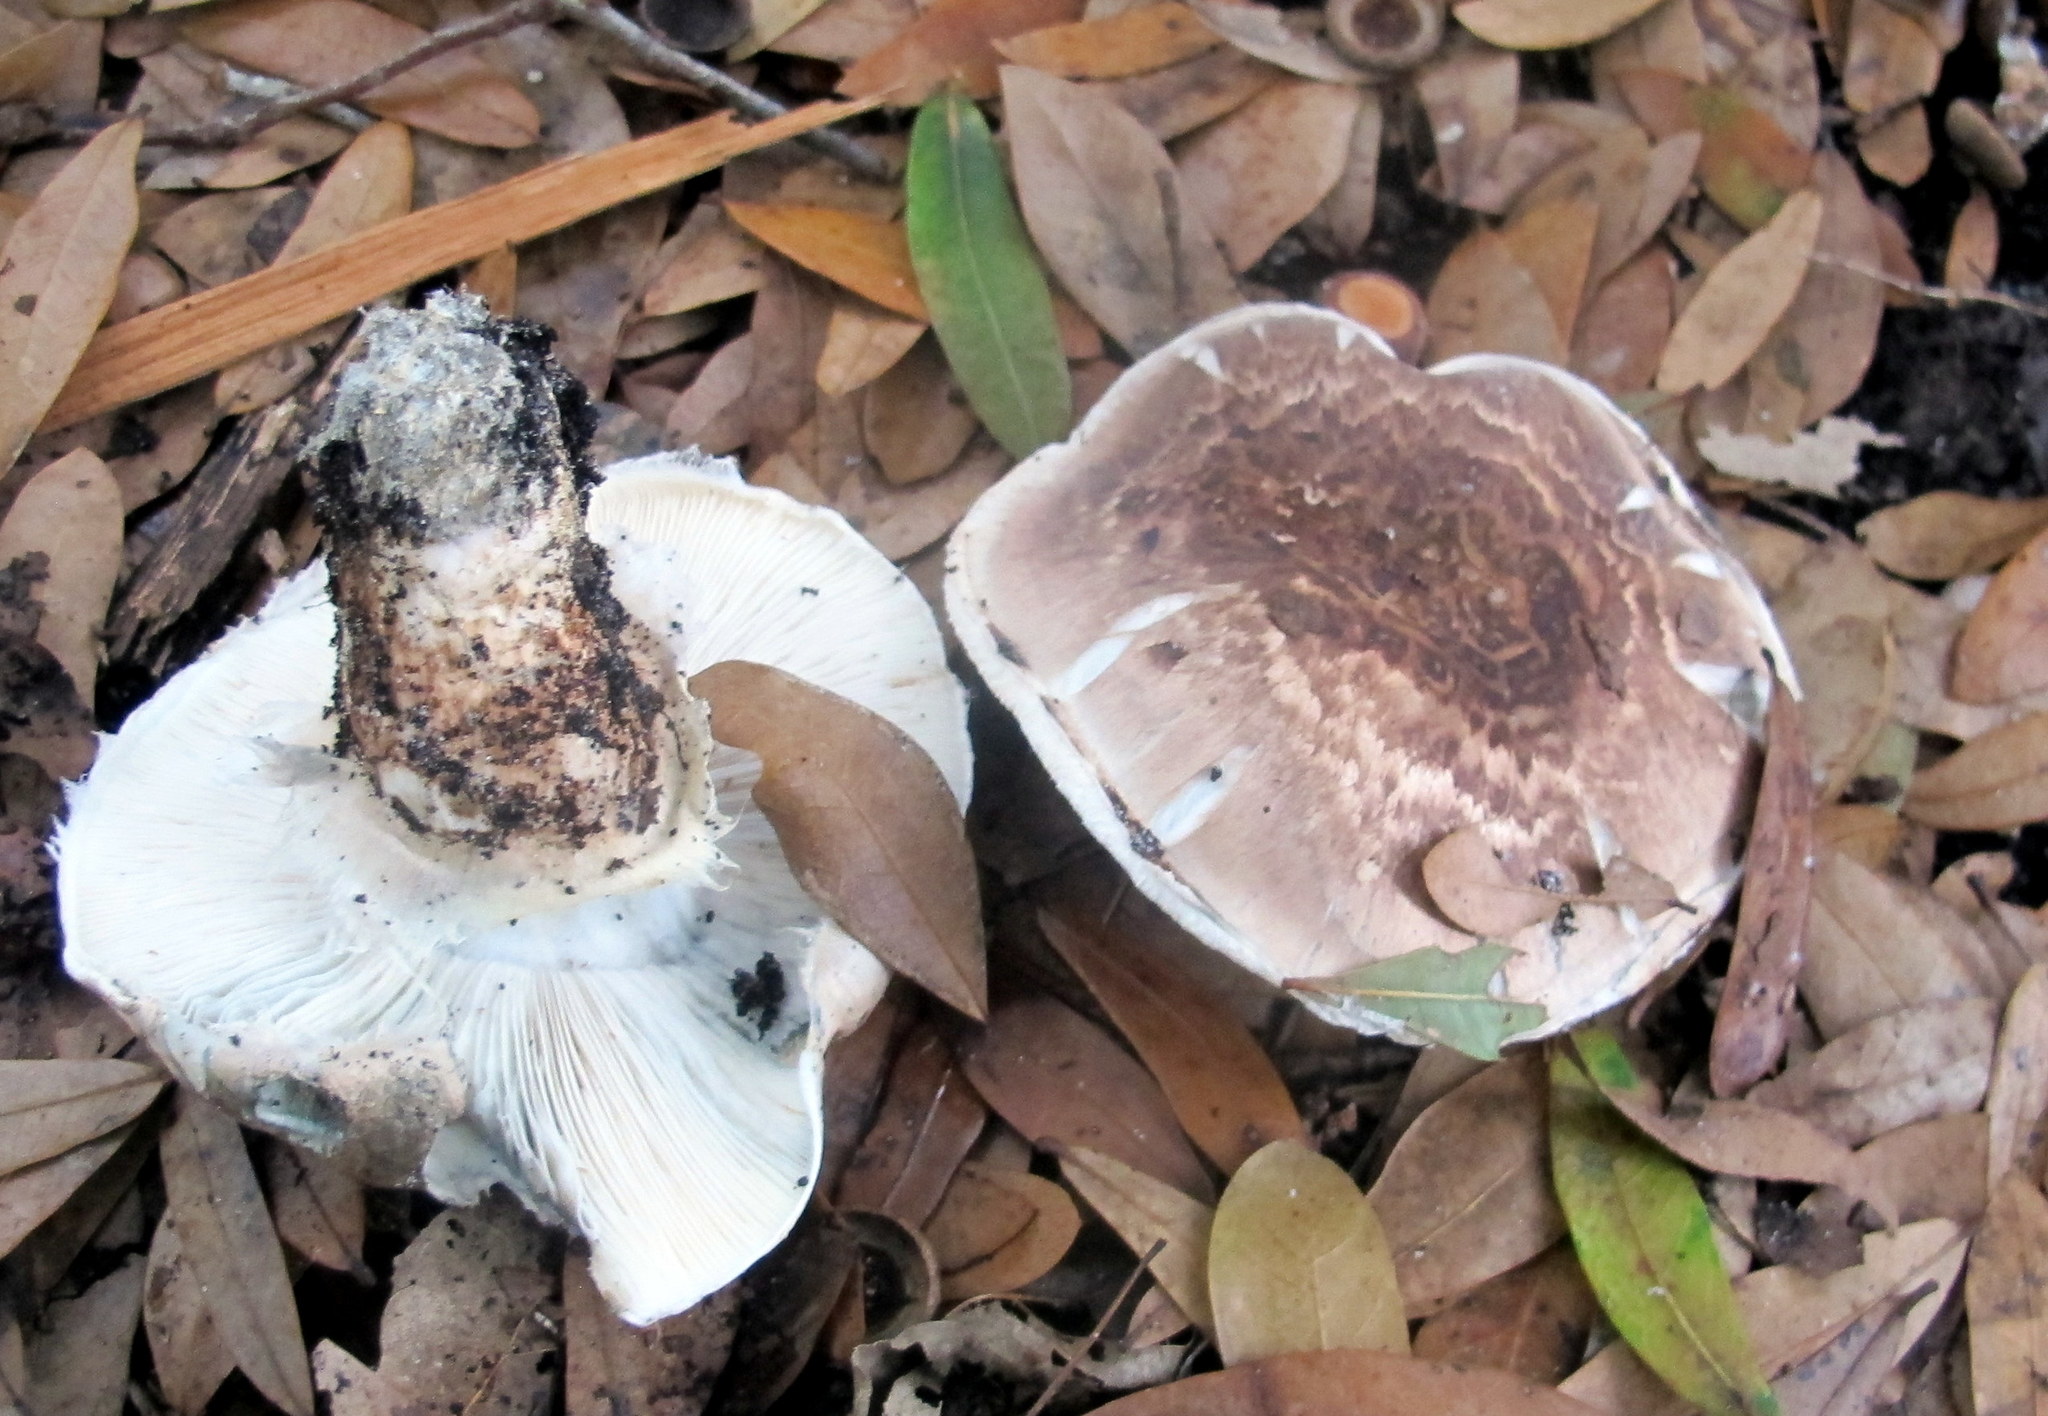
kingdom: Fungi
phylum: Basidiomycota
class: Agaricomycetes
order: Agaricales
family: Tricholomataceae
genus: Tricholoma
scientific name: Tricholoma caligatum
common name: True booted knight
